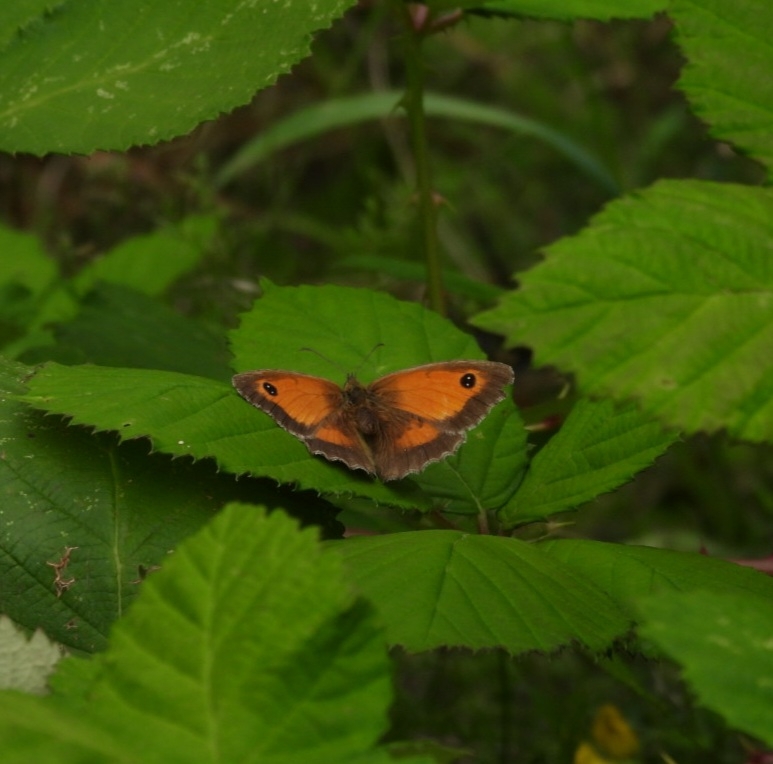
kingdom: Animalia
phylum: Arthropoda
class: Insecta
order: Lepidoptera
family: Nymphalidae
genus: Pyronia
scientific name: Pyronia tithonus
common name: Gatekeeper
